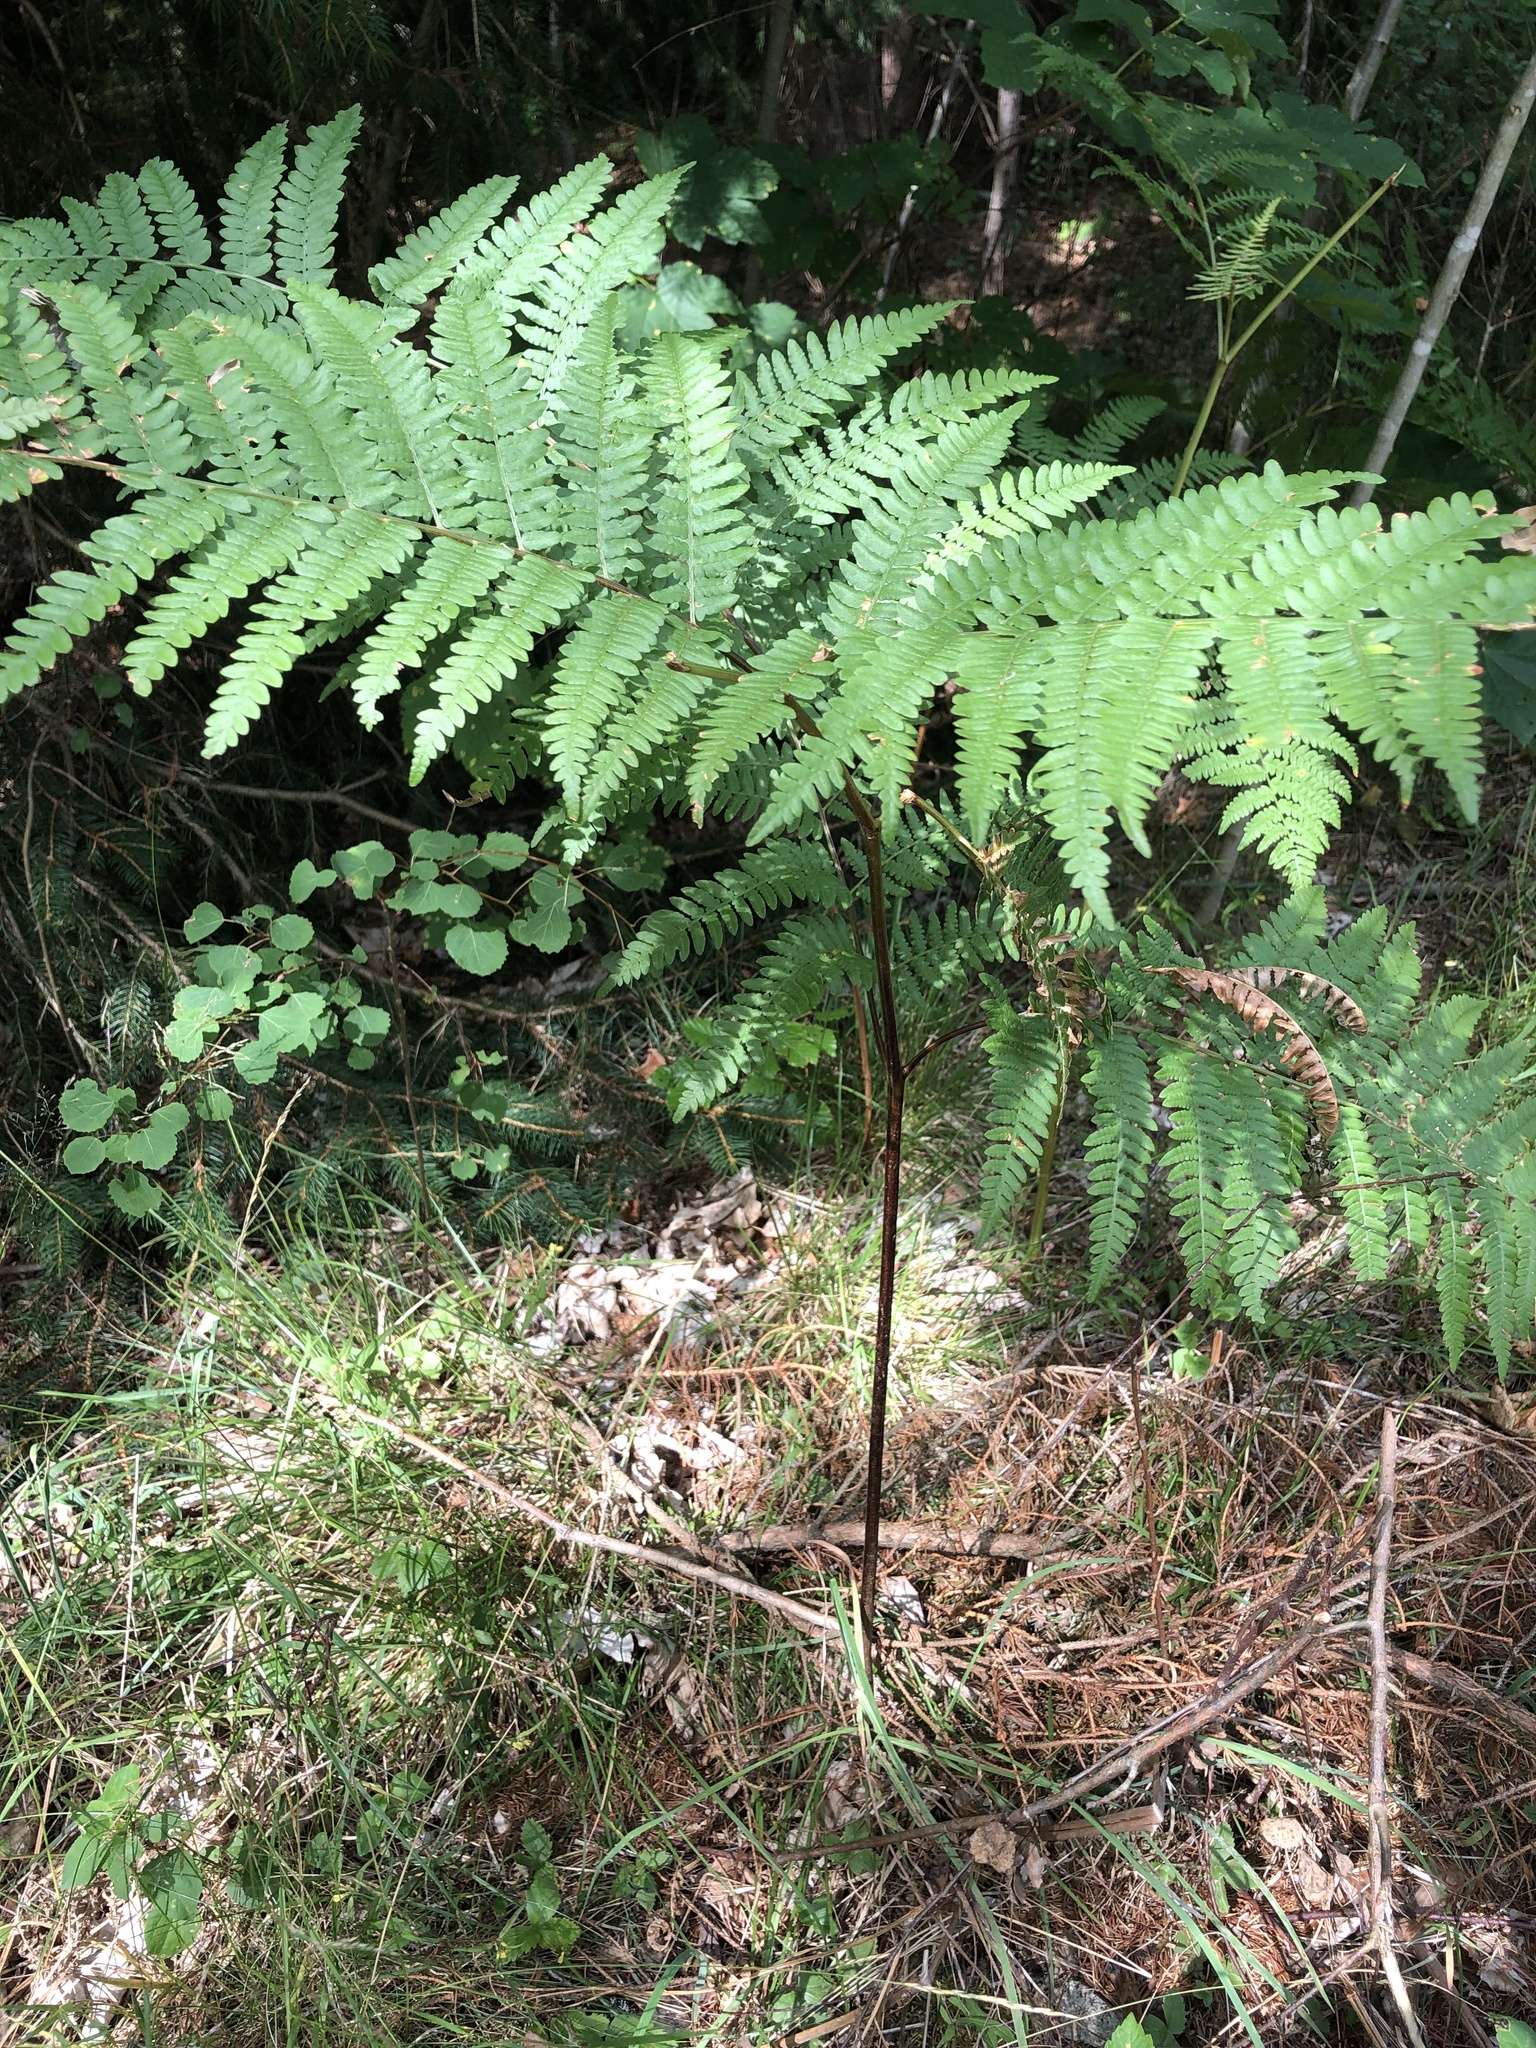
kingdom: Plantae
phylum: Tracheophyta
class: Polypodiopsida
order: Polypodiales
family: Dennstaedtiaceae
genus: Pteridium
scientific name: Pteridium aquilinum
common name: Bracken
